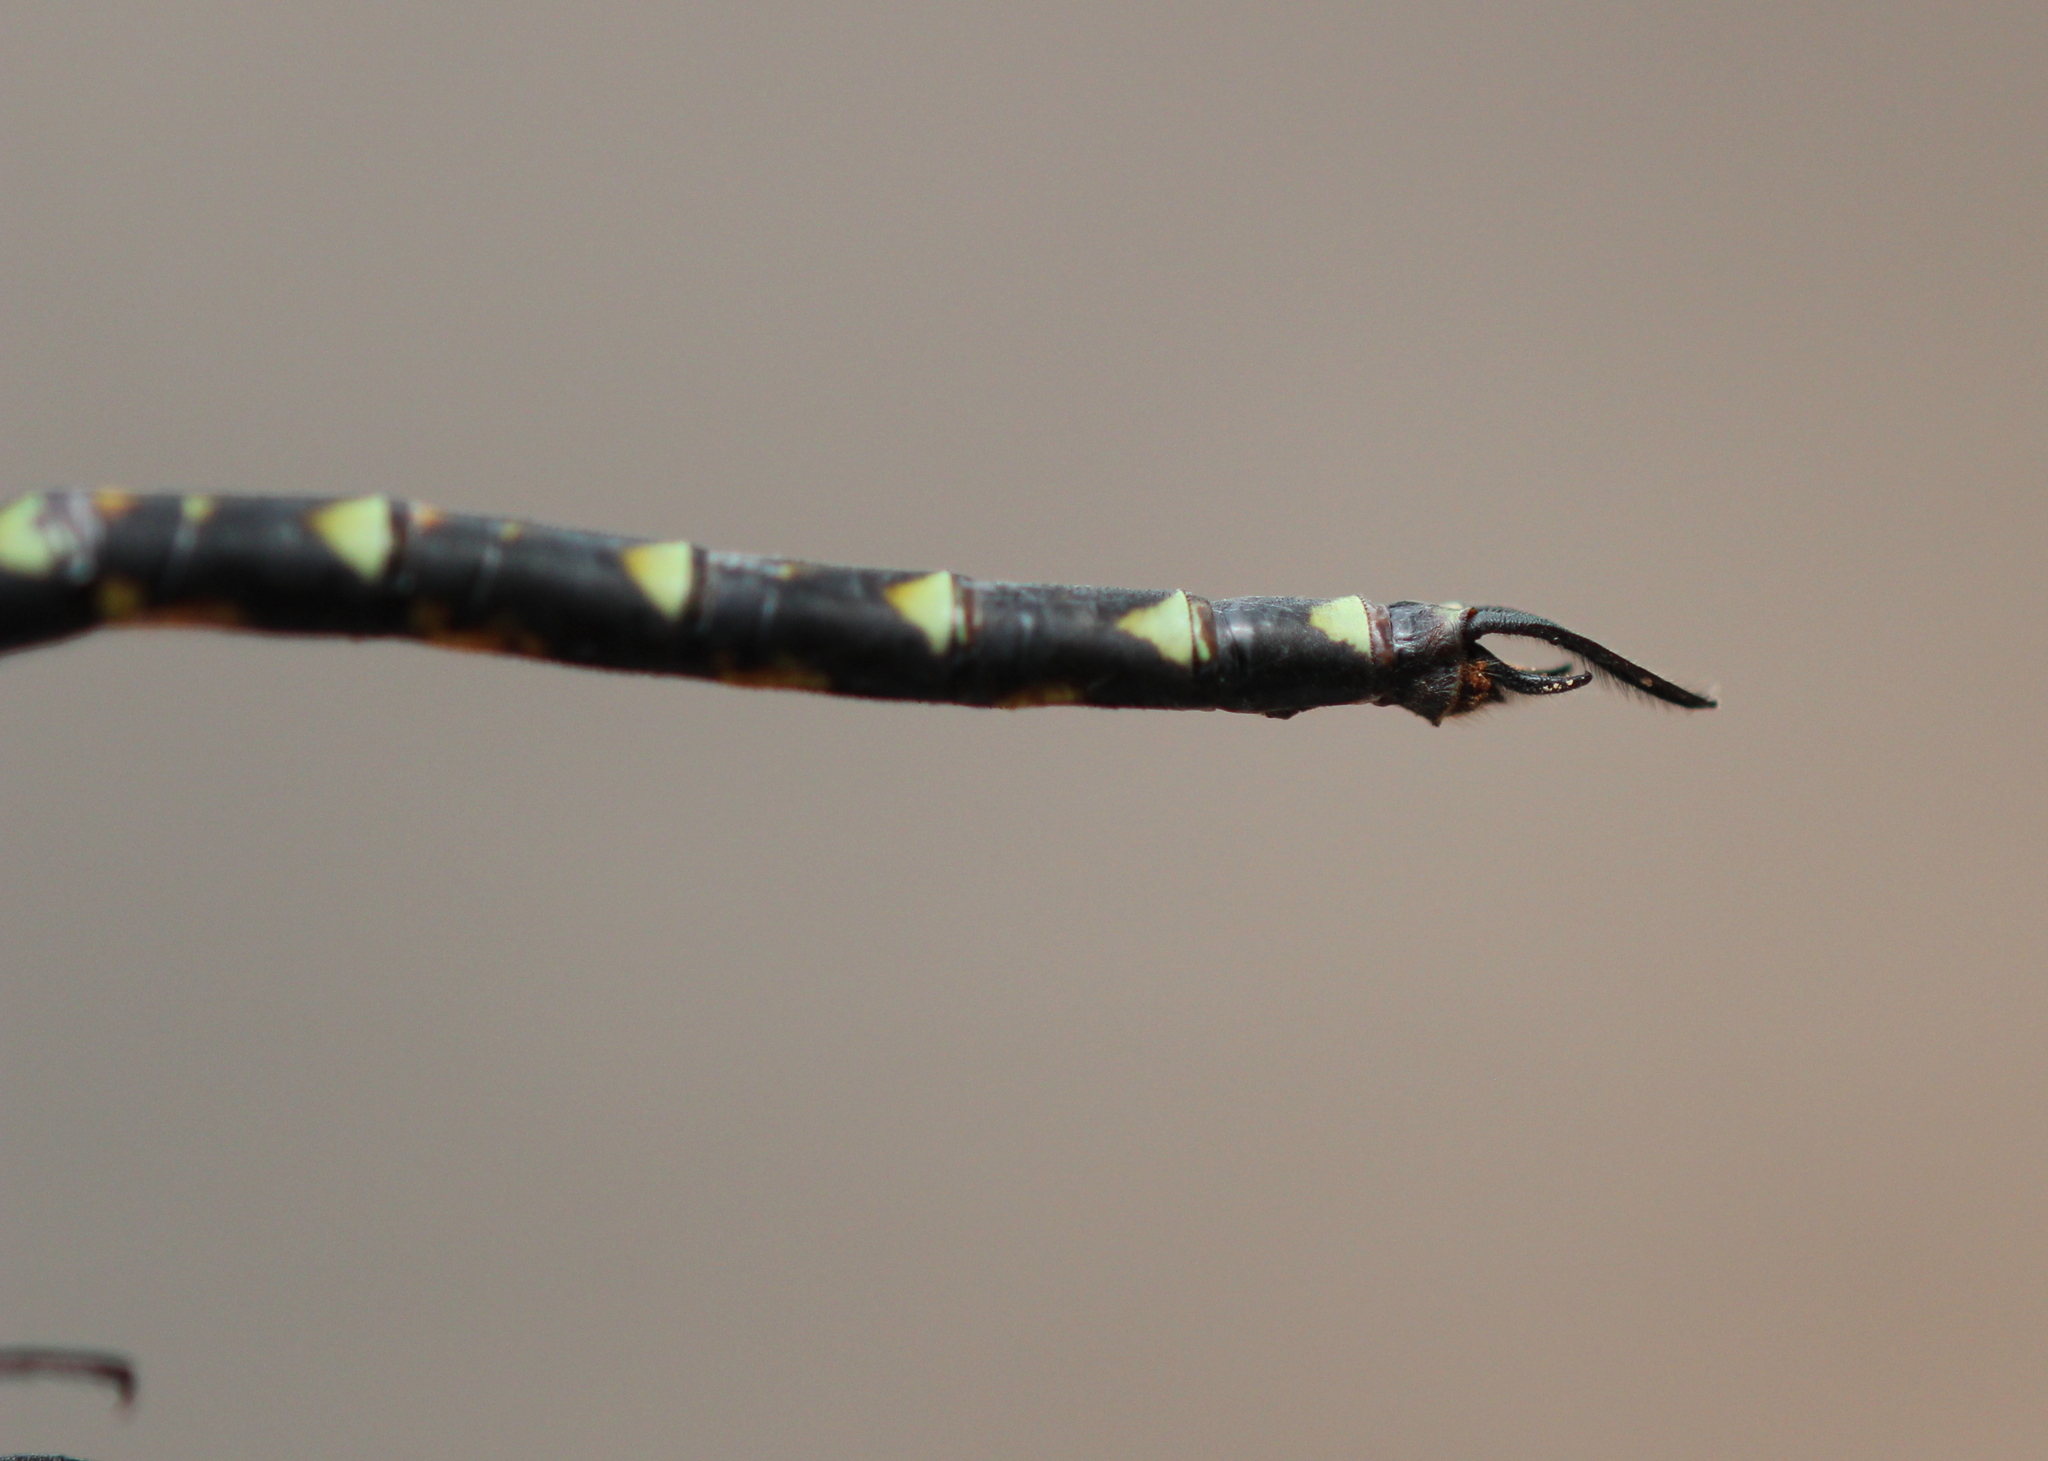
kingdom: Animalia
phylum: Arthropoda
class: Insecta
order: Odonata
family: Aeshnidae
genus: Gomphaeschna
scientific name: Gomphaeschna furcillata
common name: Harlequin darner
